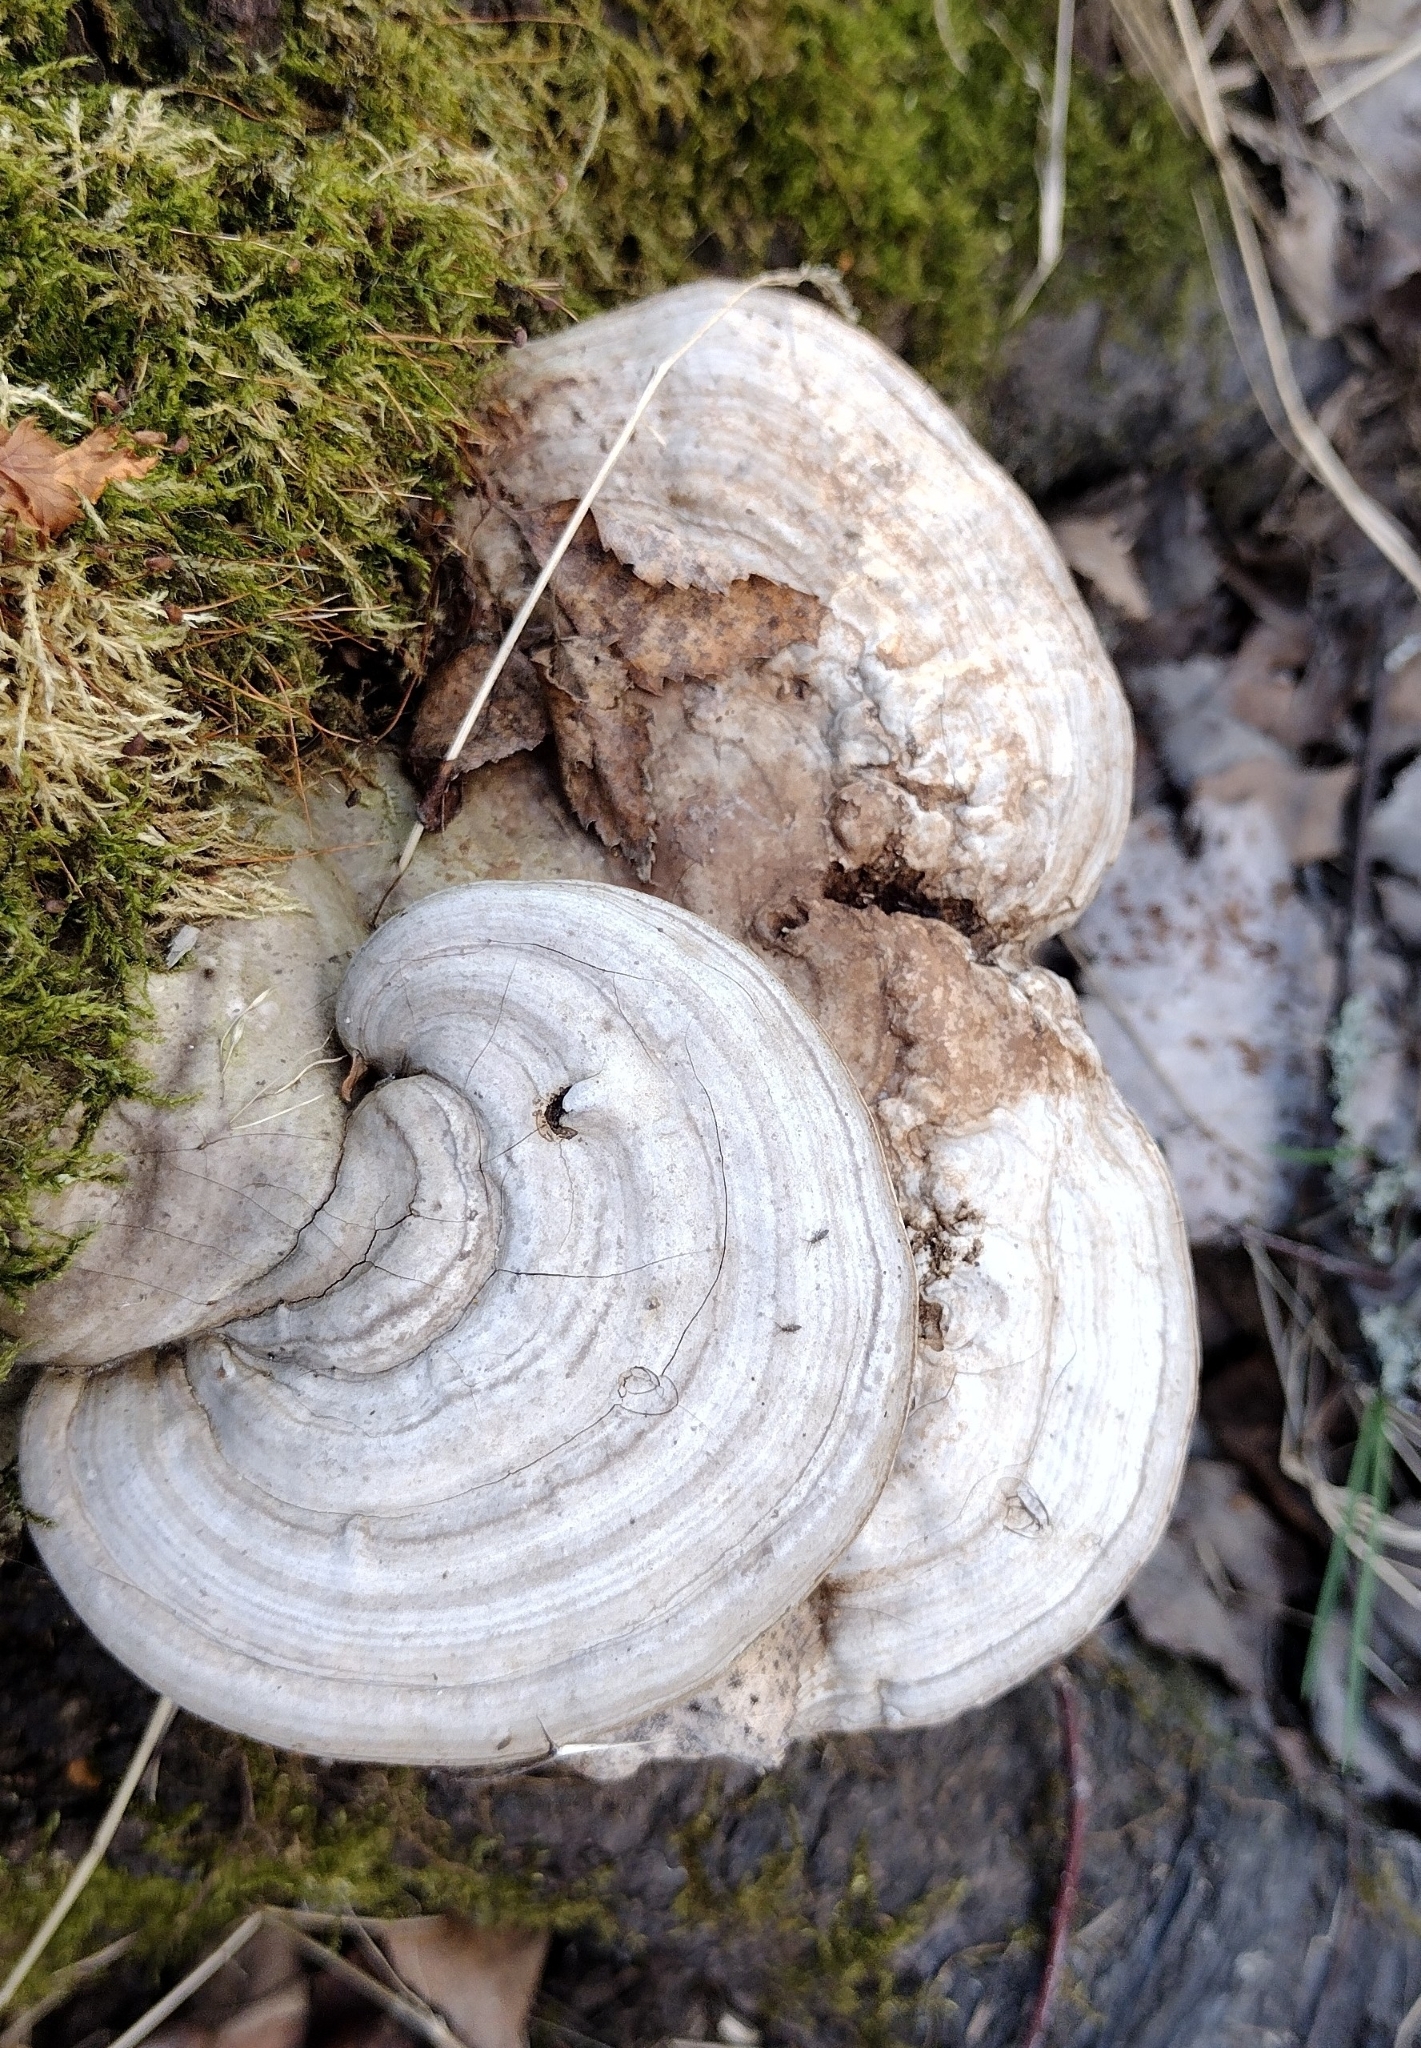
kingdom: Fungi
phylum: Basidiomycota
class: Agaricomycetes
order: Polyporales
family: Polyporaceae
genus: Ganoderma
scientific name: Ganoderma applanatum
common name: Artist's bracket
